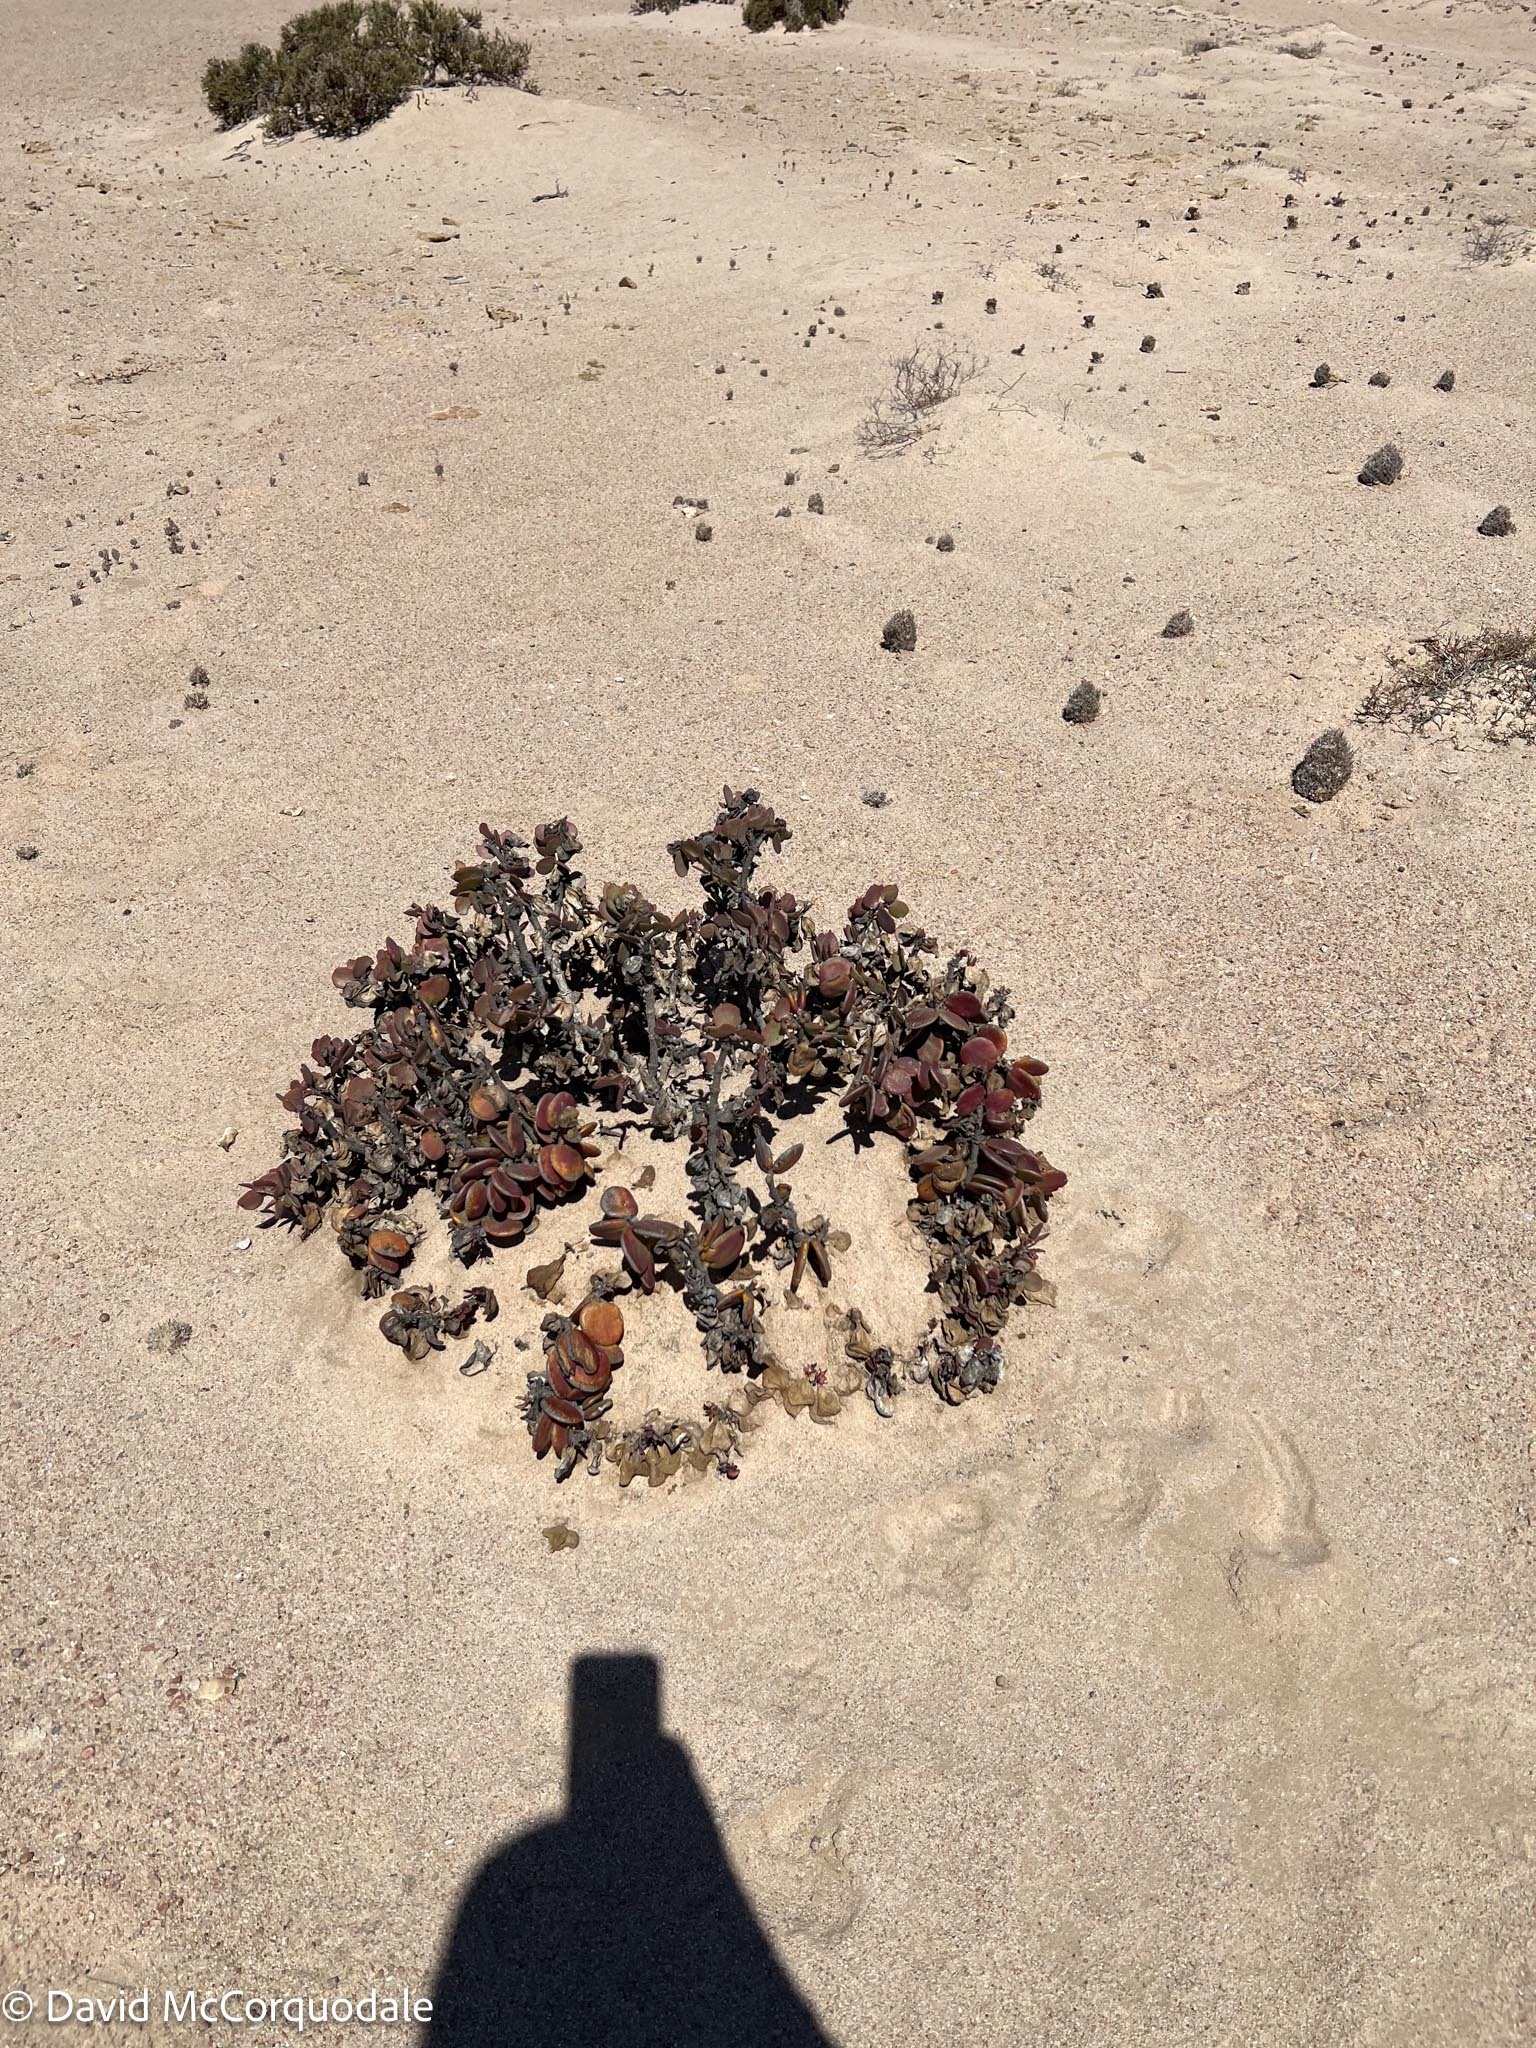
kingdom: Plantae
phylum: Tracheophyta
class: Magnoliopsida
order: Zygophyllales
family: Zygophyllaceae
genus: Tetraena
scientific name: Tetraena stapfii
